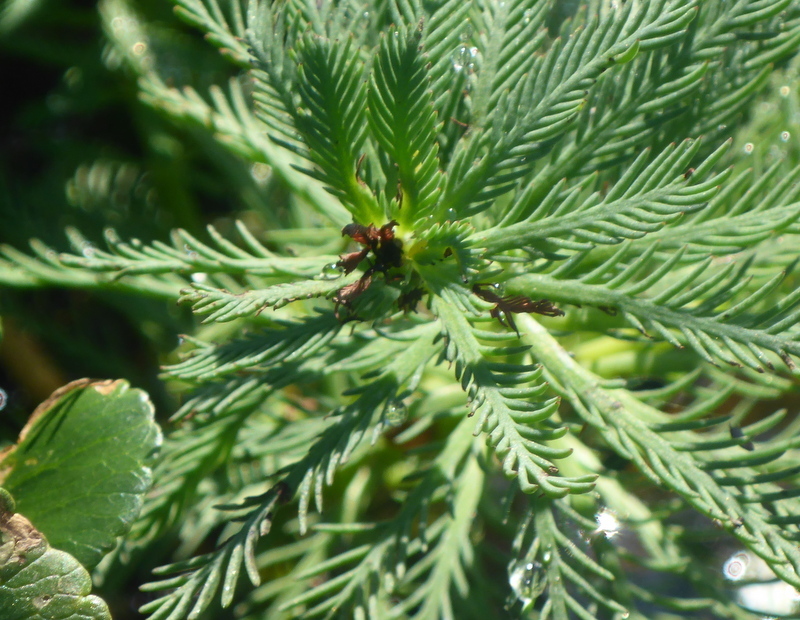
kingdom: Plantae
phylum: Tracheophyta
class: Magnoliopsida
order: Saxifragales
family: Haloragaceae
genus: Myriophyllum
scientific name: Myriophyllum aquaticum
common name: Parrot's feather
